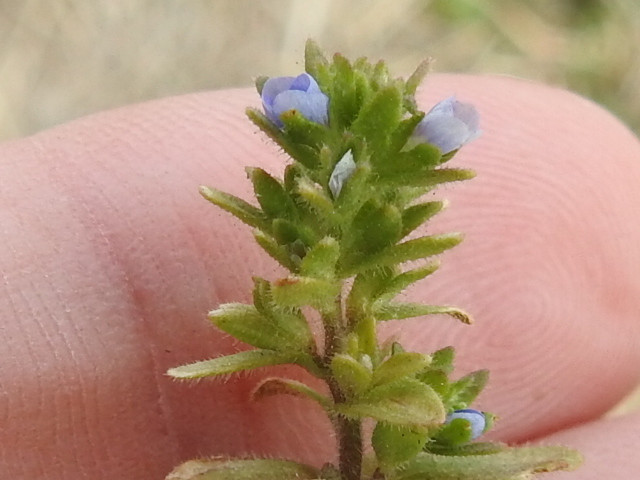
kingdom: Plantae
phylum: Tracheophyta
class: Magnoliopsida
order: Lamiales
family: Plantaginaceae
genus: Veronica
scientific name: Veronica arvensis
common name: Corn speedwell
